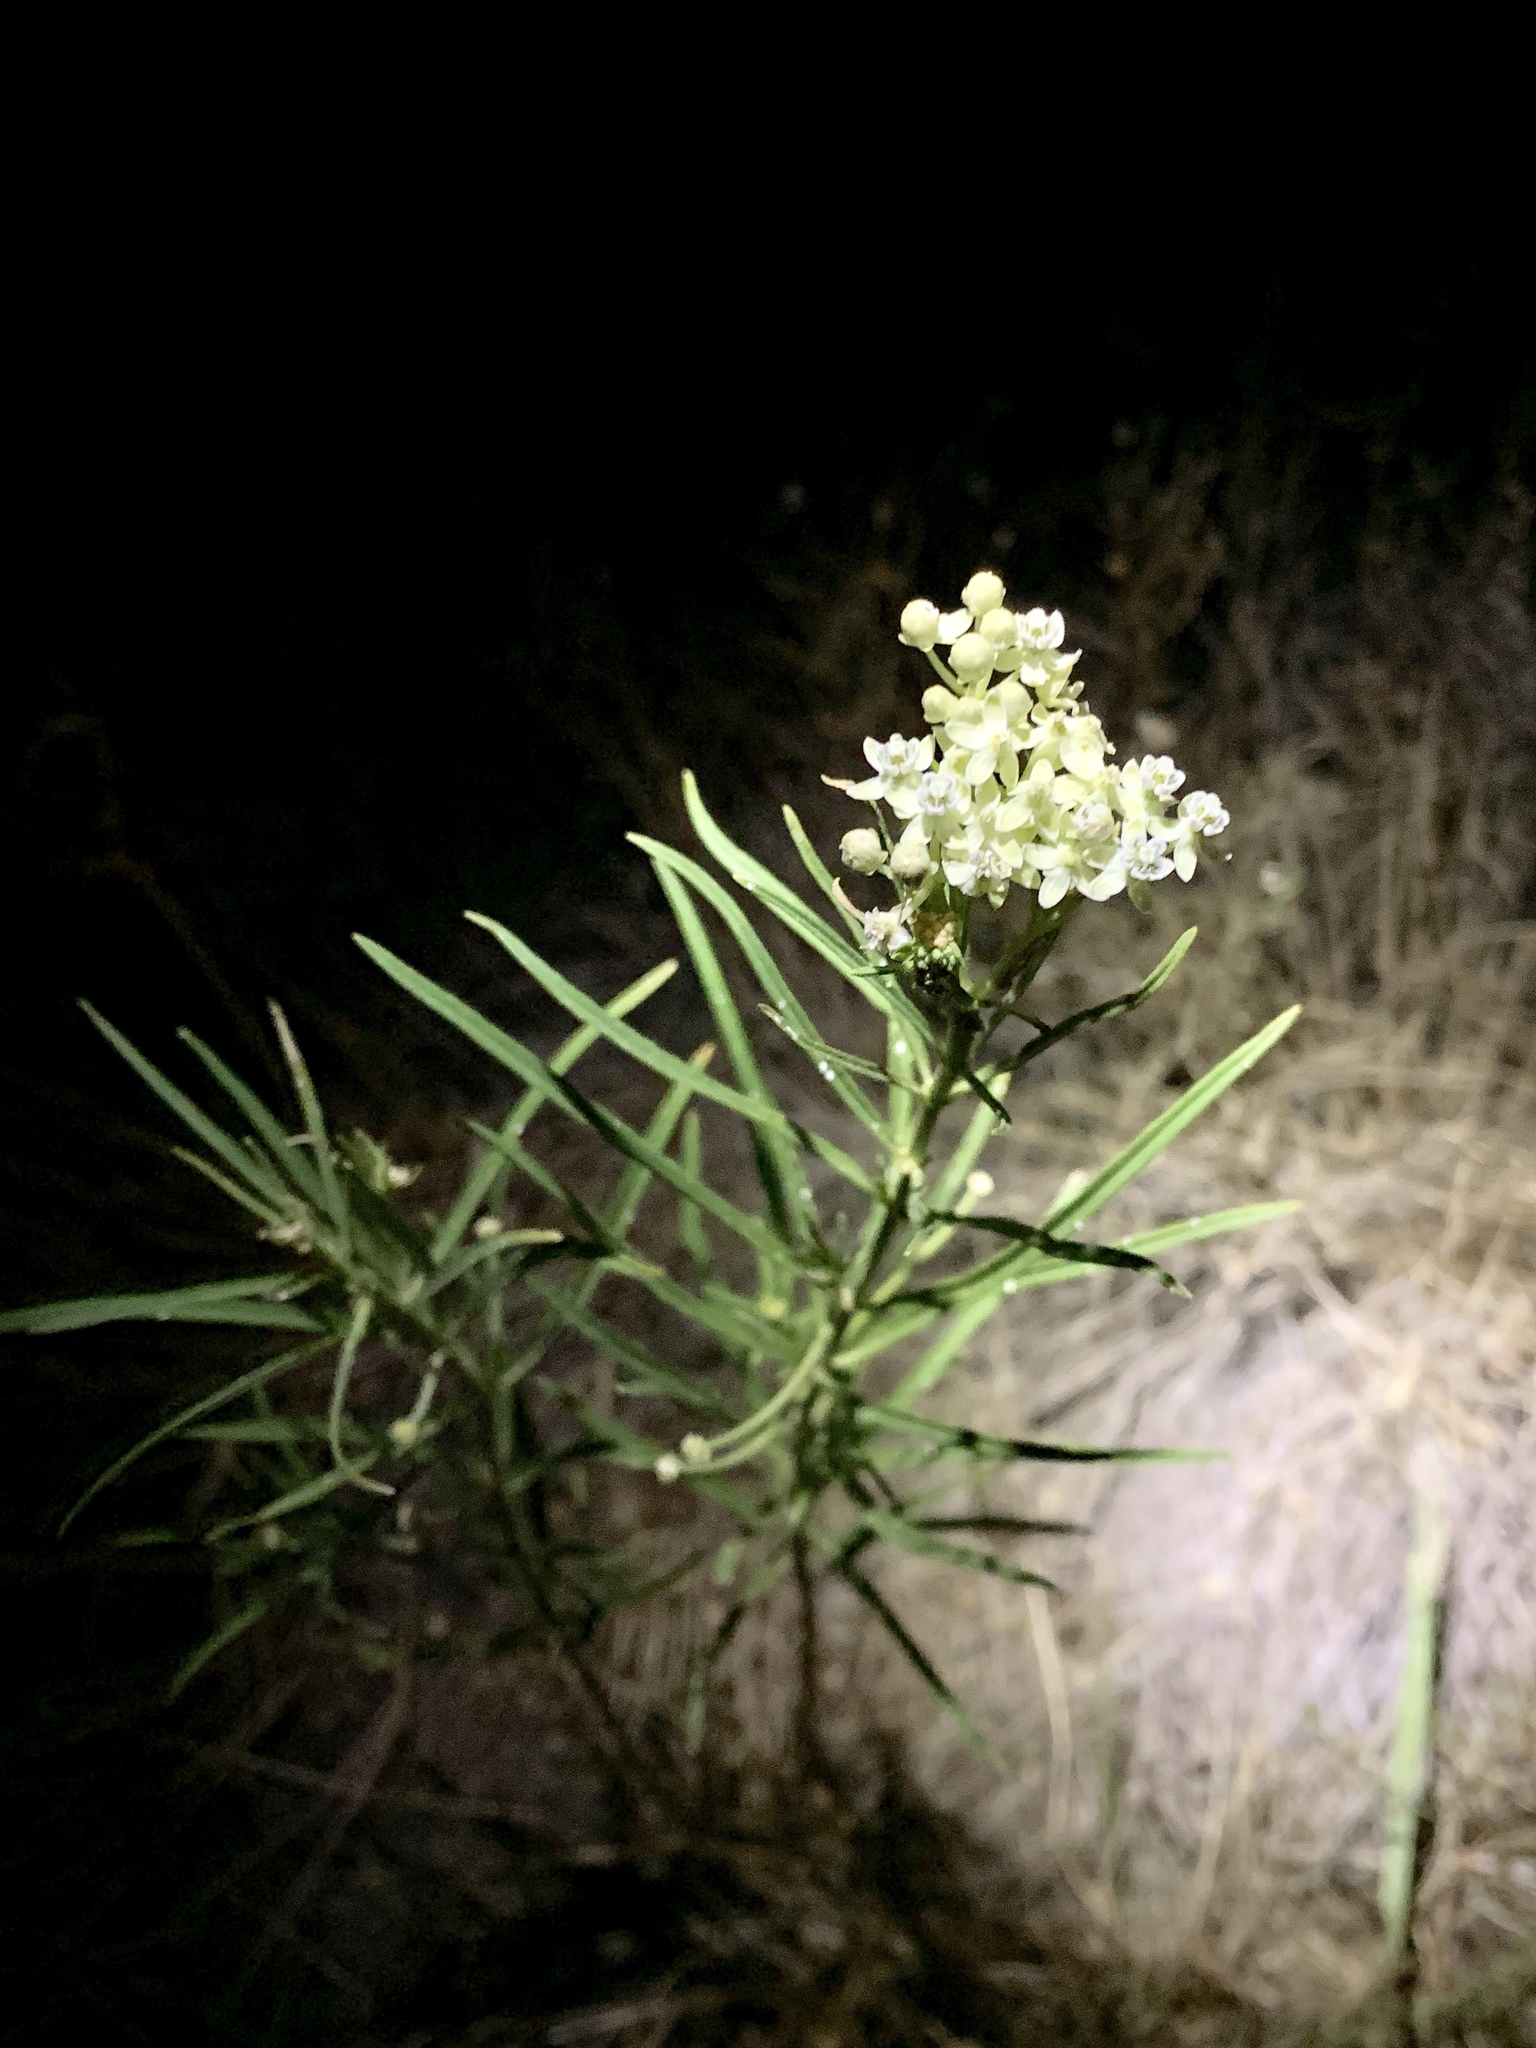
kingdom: Plantae
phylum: Tracheophyta
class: Magnoliopsida
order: Gentianales
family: Apocynaceae
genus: Asclepias
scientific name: Asclepias subverticillata
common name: Horsetail milkweed
